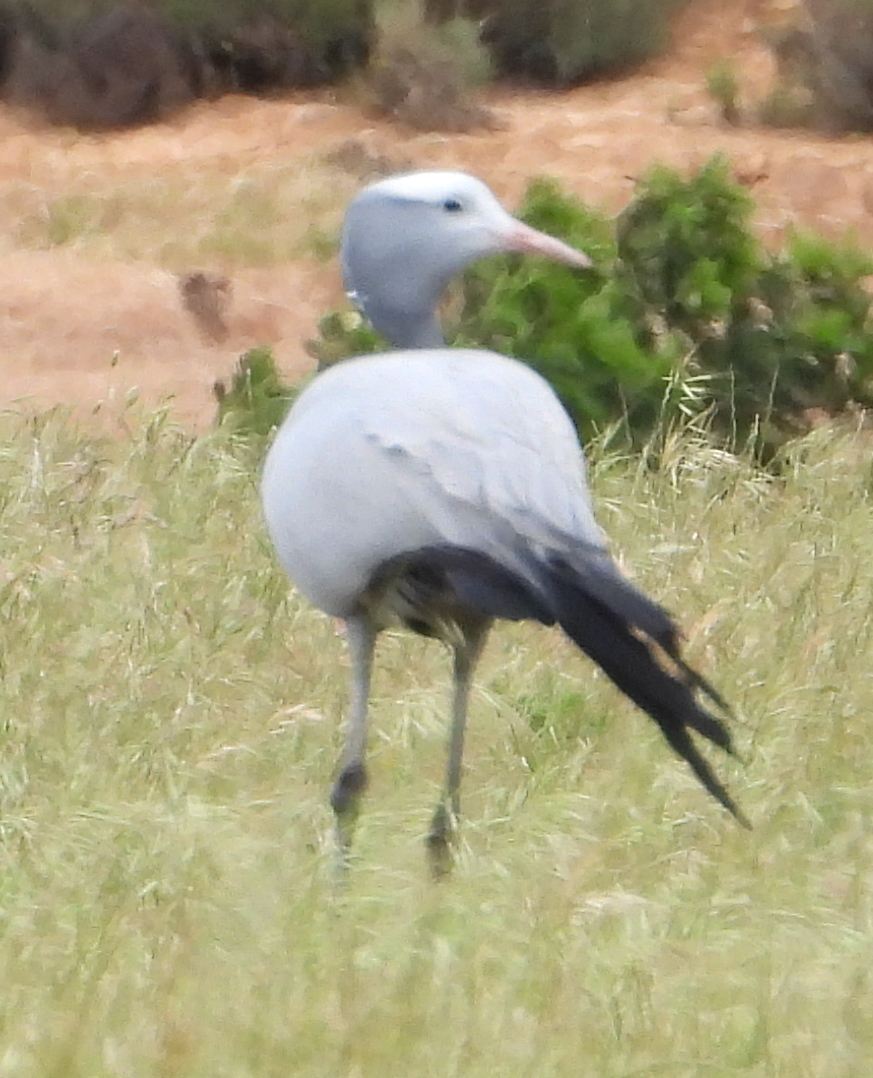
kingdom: Animalia
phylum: Chordata
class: Aves
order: Gruiformes
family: Gruidae
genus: Anthropoides
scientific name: Anthropoides paradiseus
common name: Blue crane
